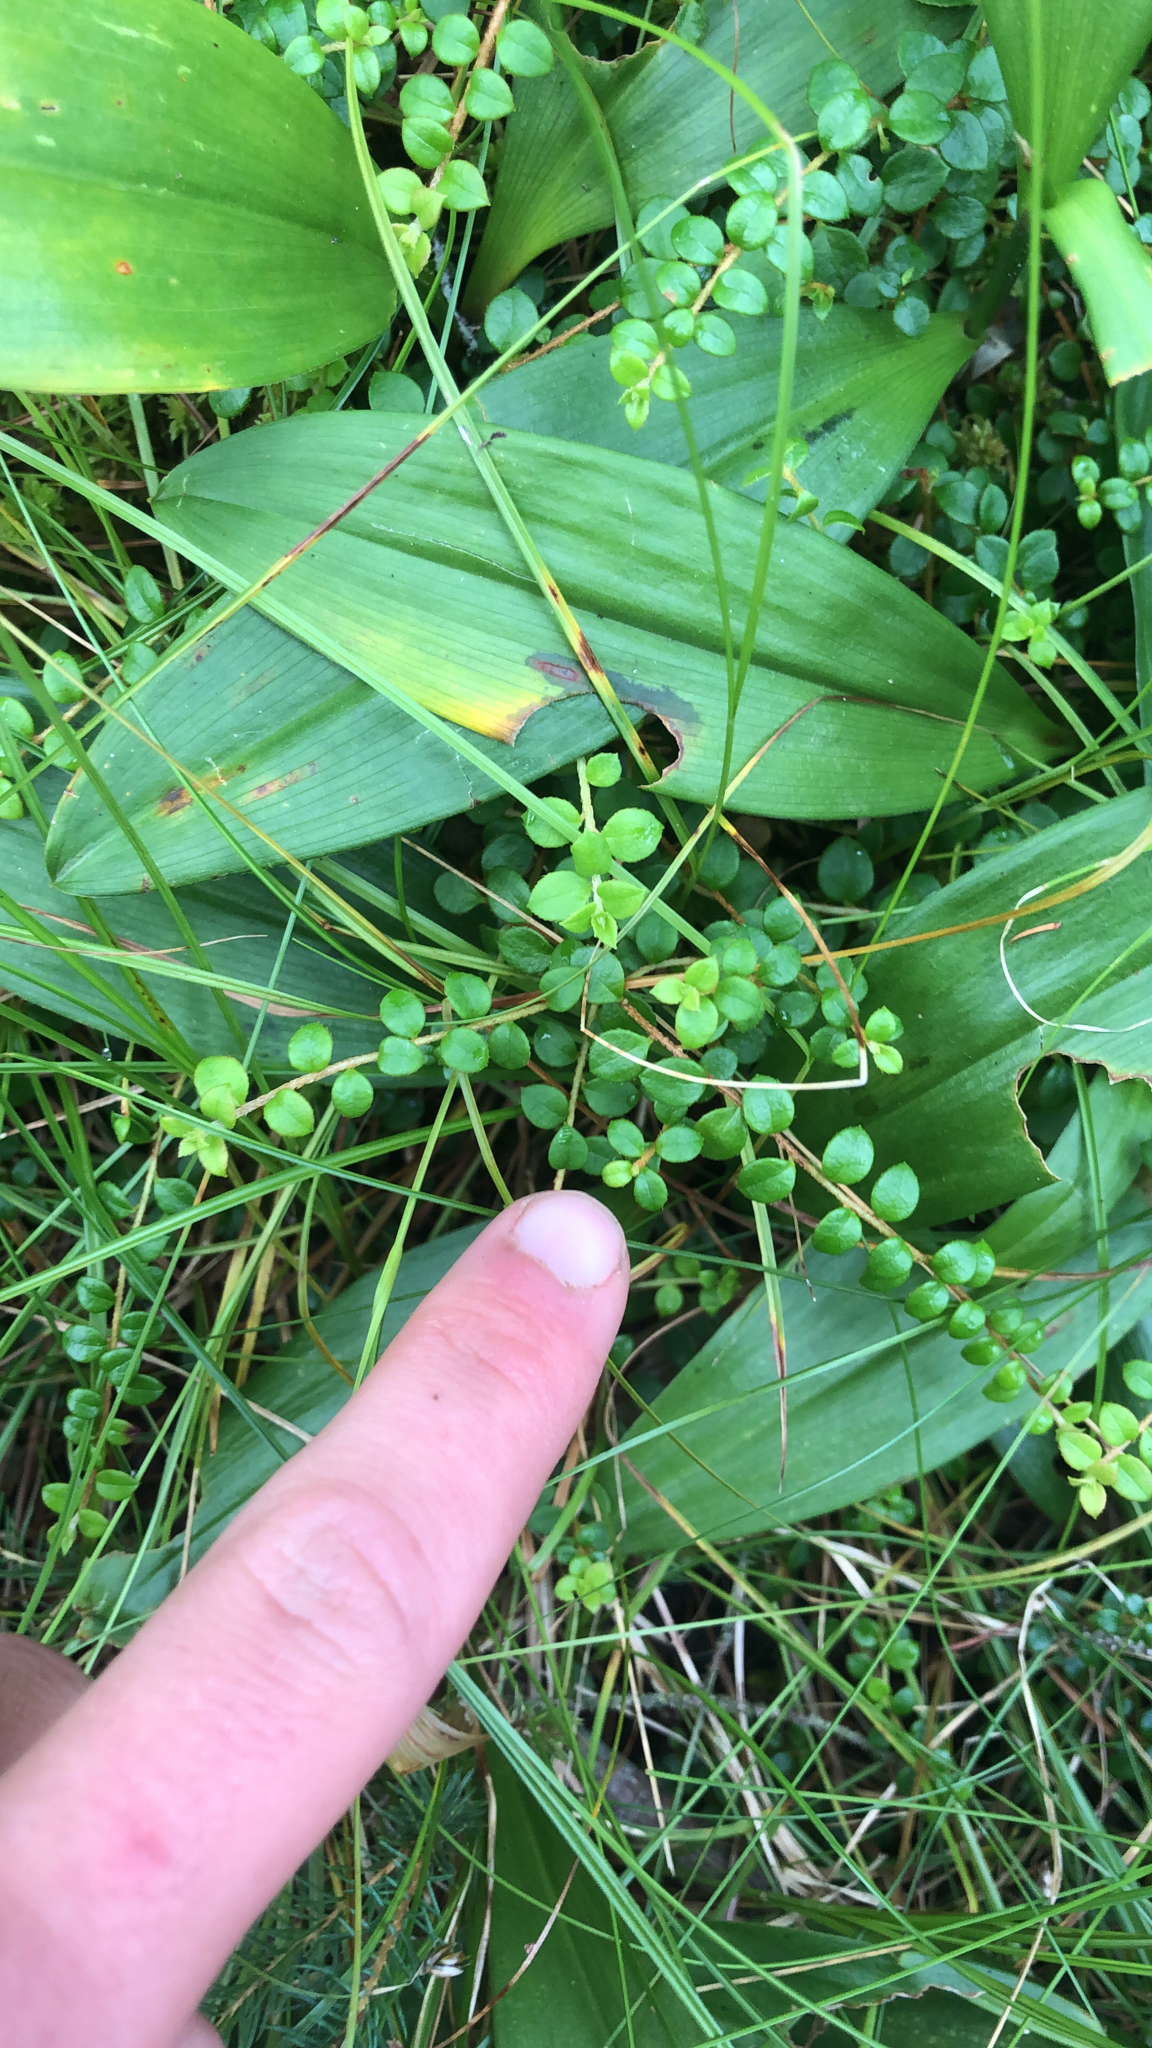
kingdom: Plantae
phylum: Tracheophyta
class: Magnoliopsida
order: Ericales
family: Ericaceae
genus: Gaultheria
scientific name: Gaultheria hispidula
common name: Cancer wintergreen
